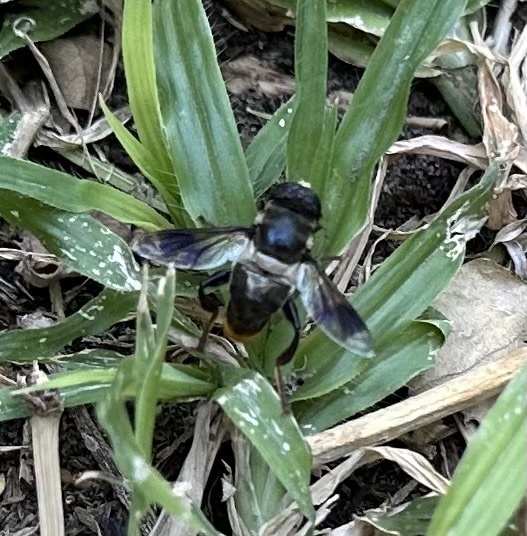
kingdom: Animalia
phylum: Arthropoda
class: Insecta
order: Diptera
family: Syrphidae
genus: Senaspis
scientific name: Senaspis haemorrhoa
